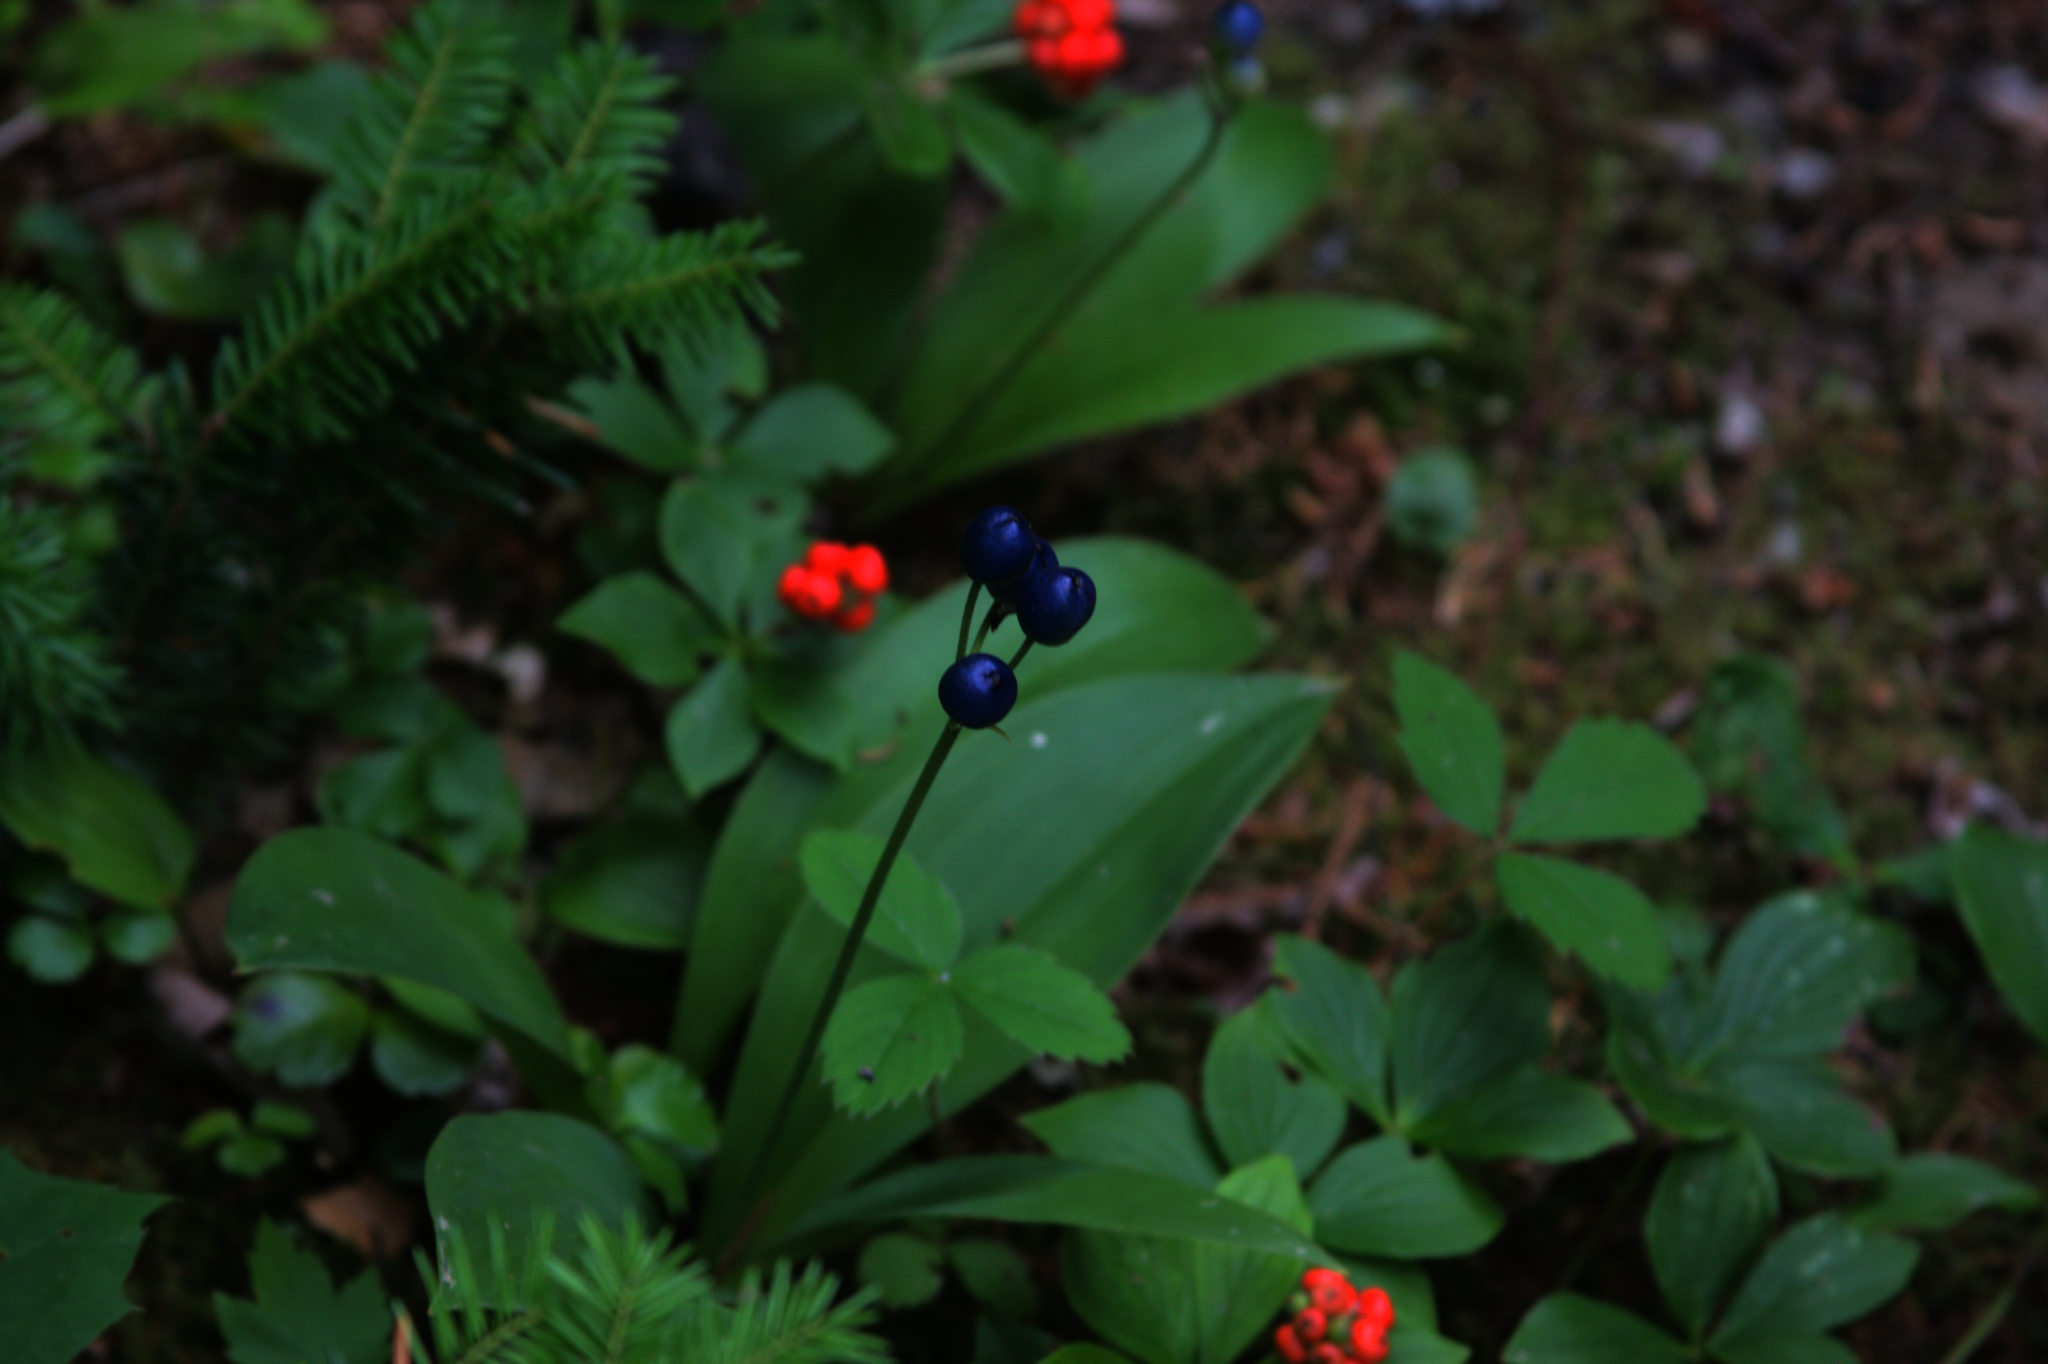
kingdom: Plantae
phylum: Tracheophyta
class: Liliopsida
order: Liliales
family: Liliaceae
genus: Clintonia
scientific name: Clintonia borealis
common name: Yellow clintonia
